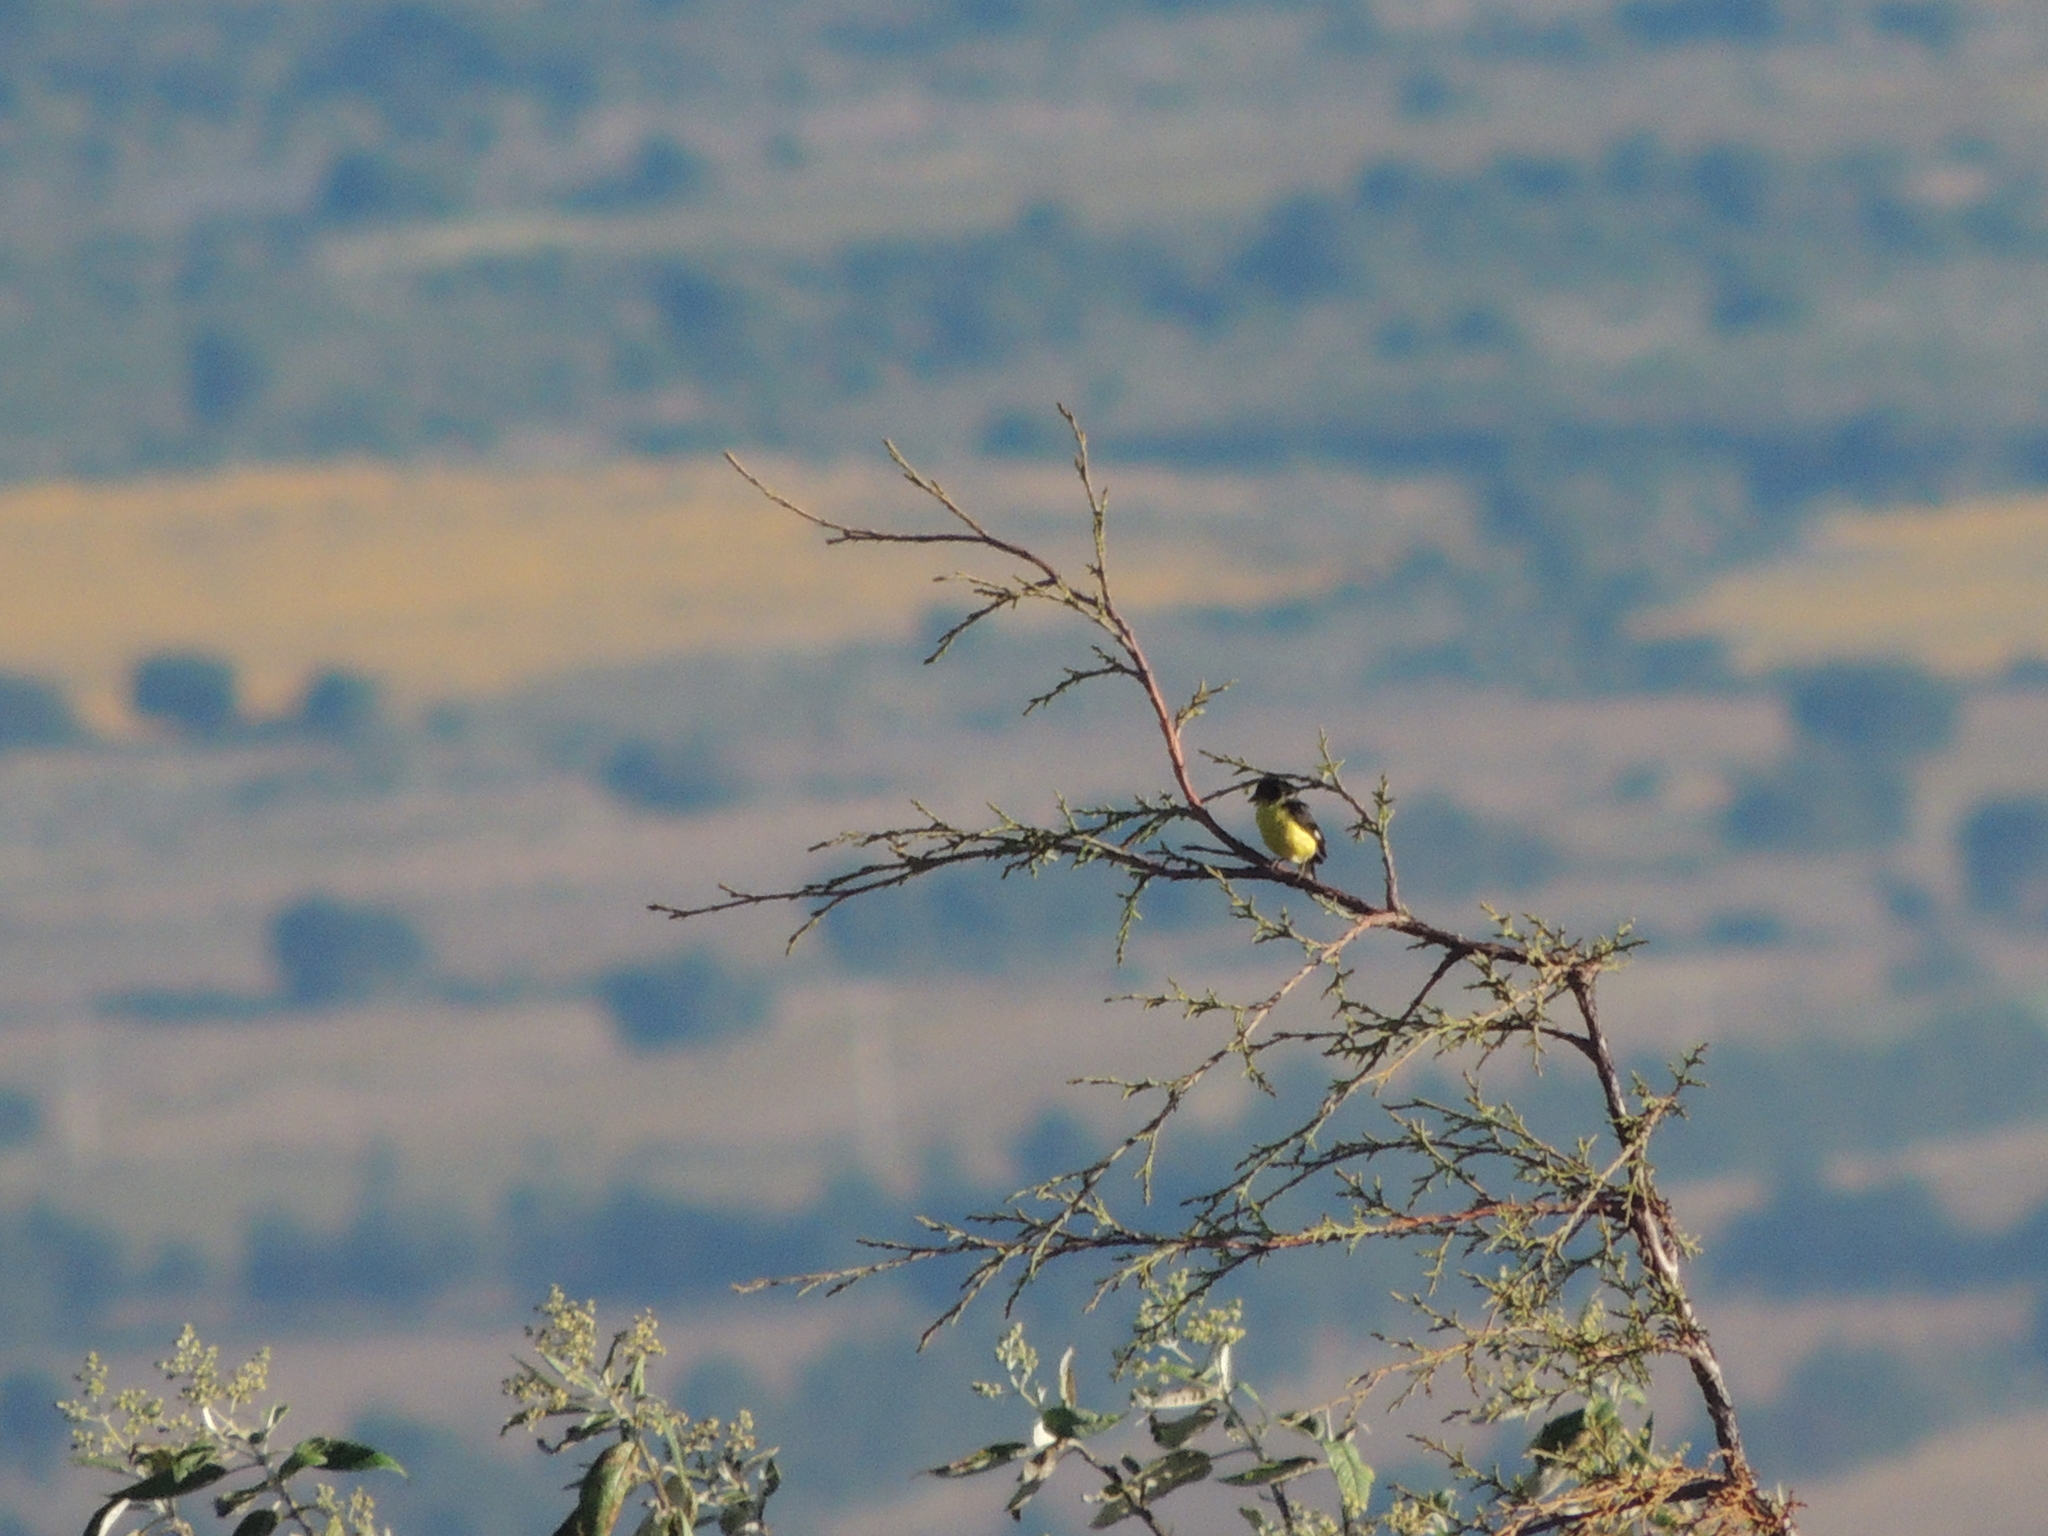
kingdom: Animalia
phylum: Chordata
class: Aves
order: Passeriformes
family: Fringillidae
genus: Spinus
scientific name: Spinus psaltria
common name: Lesser goldfinch
